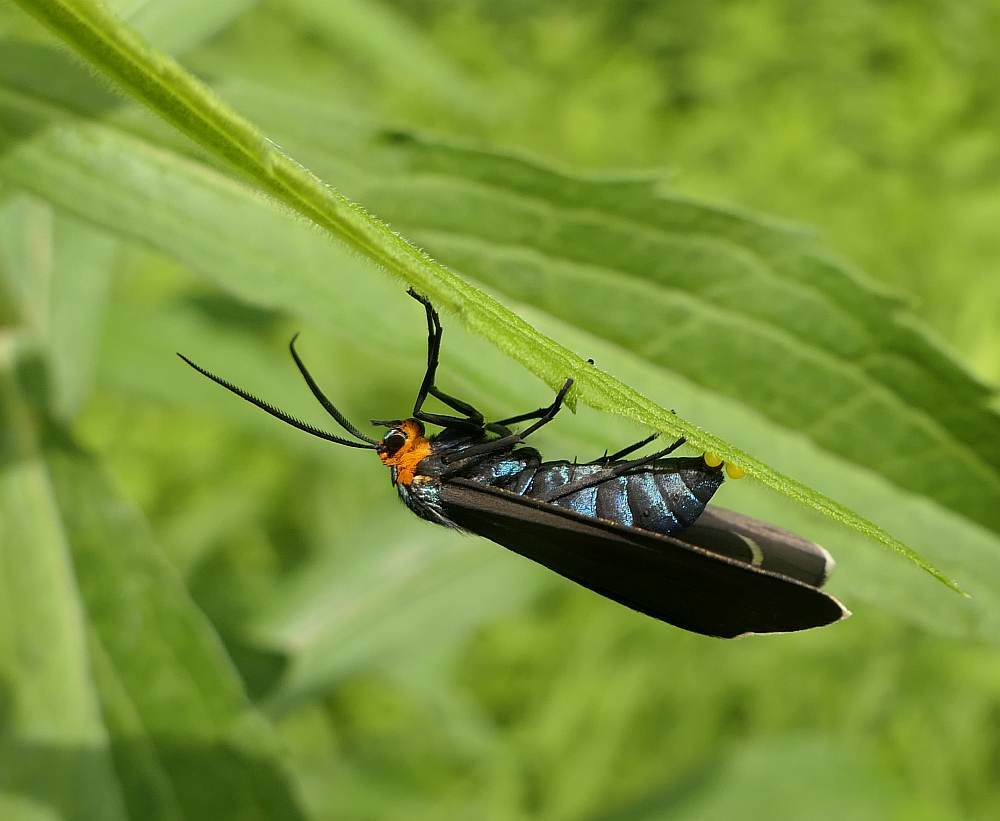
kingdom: Animalia
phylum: Arthropoda
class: Insecta
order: Lepidoptera
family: Erebidae
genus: Ctenucha
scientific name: Ctenucha virginica
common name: Virginia ctenucha moth
